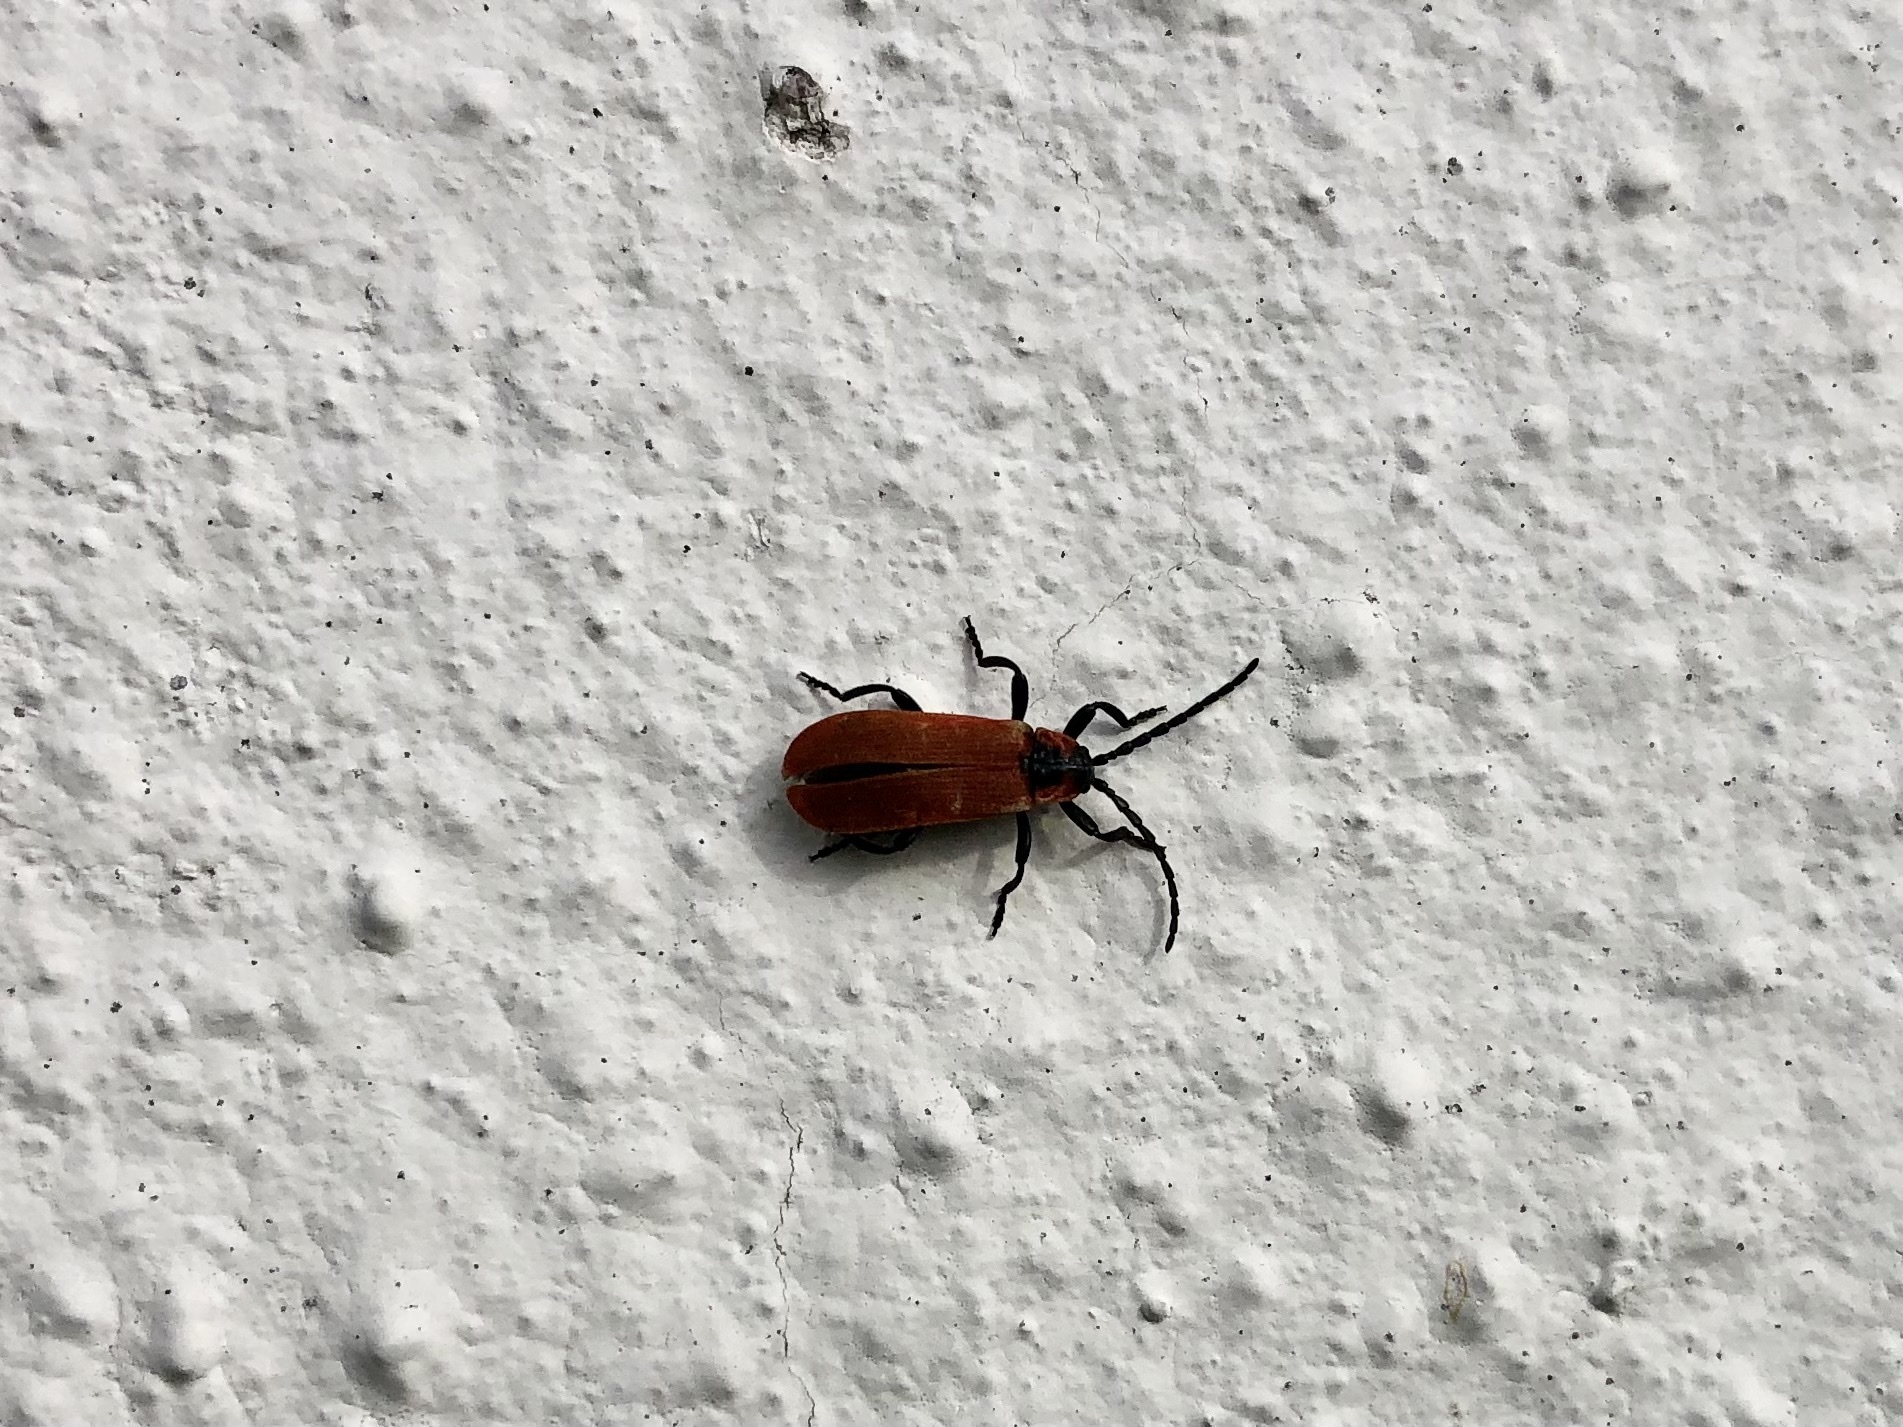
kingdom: Animalia
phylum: Arthropoda
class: Insecta
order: Coleoptera
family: Lycidae
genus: Lygistopterus
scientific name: Lygistopterus sanguineus
